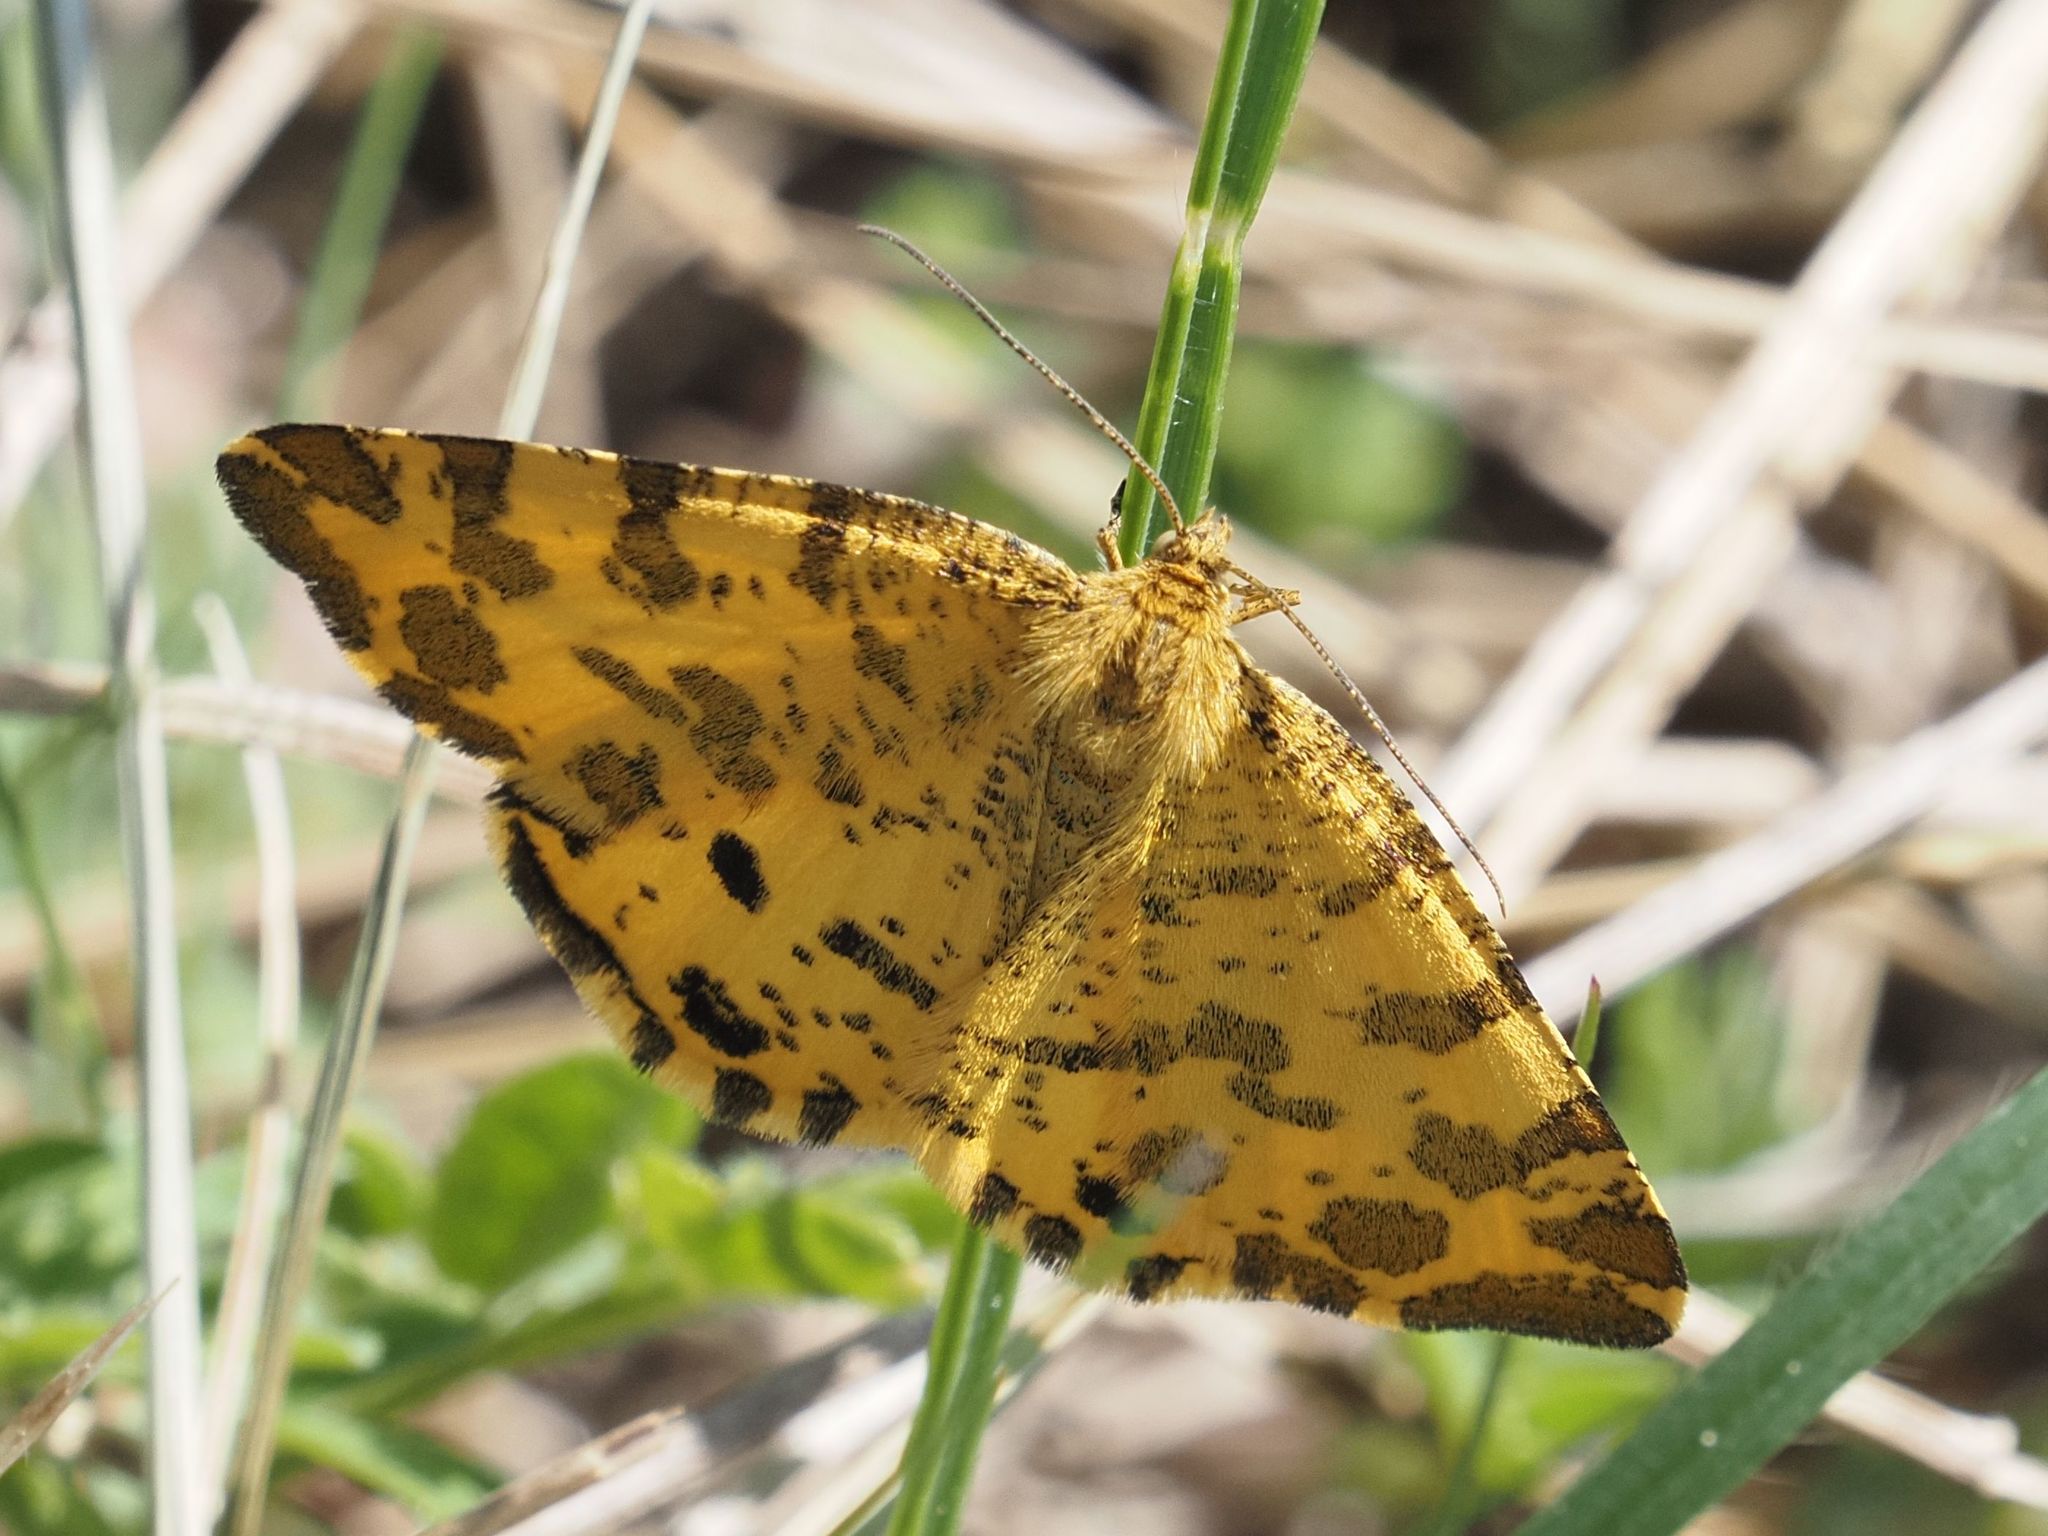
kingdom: Animalia
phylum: Arthropoda
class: Insecta
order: Lepidoptera
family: Geometridae
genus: Pseudopanthera
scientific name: Pseudopanthera macularia
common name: Speckled yellow
